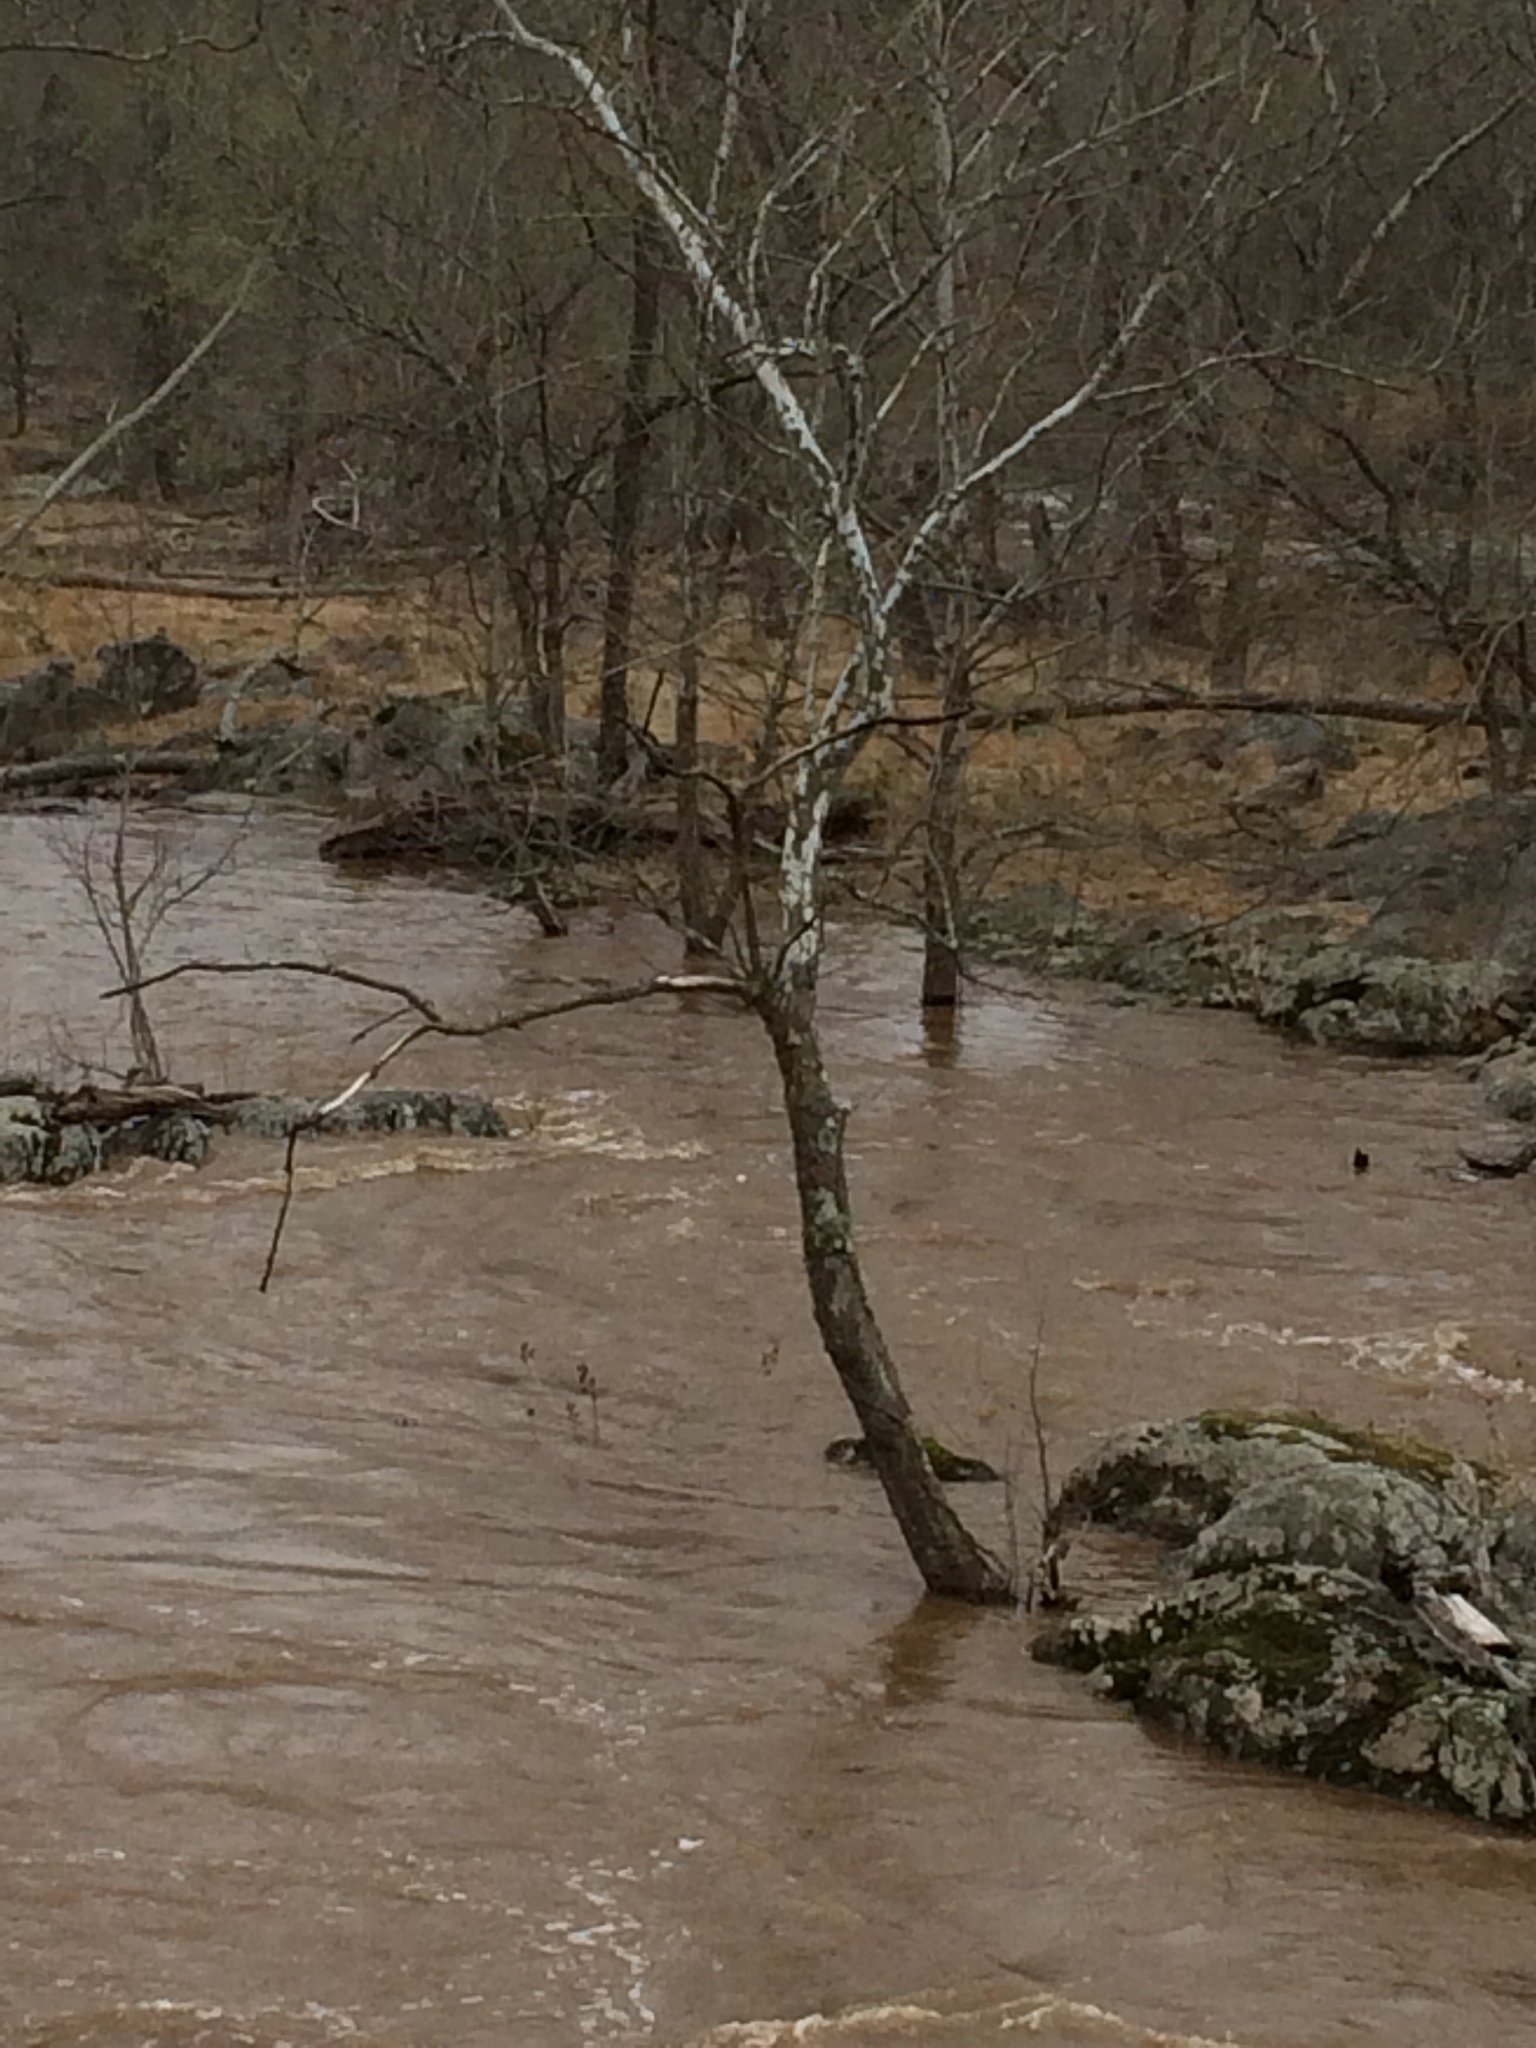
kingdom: Plantae
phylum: Tracheophyta
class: Magnoliopsida
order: Proteales
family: Platanaceae
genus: Platanus
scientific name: Platanus occidentalis
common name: American sycamore
